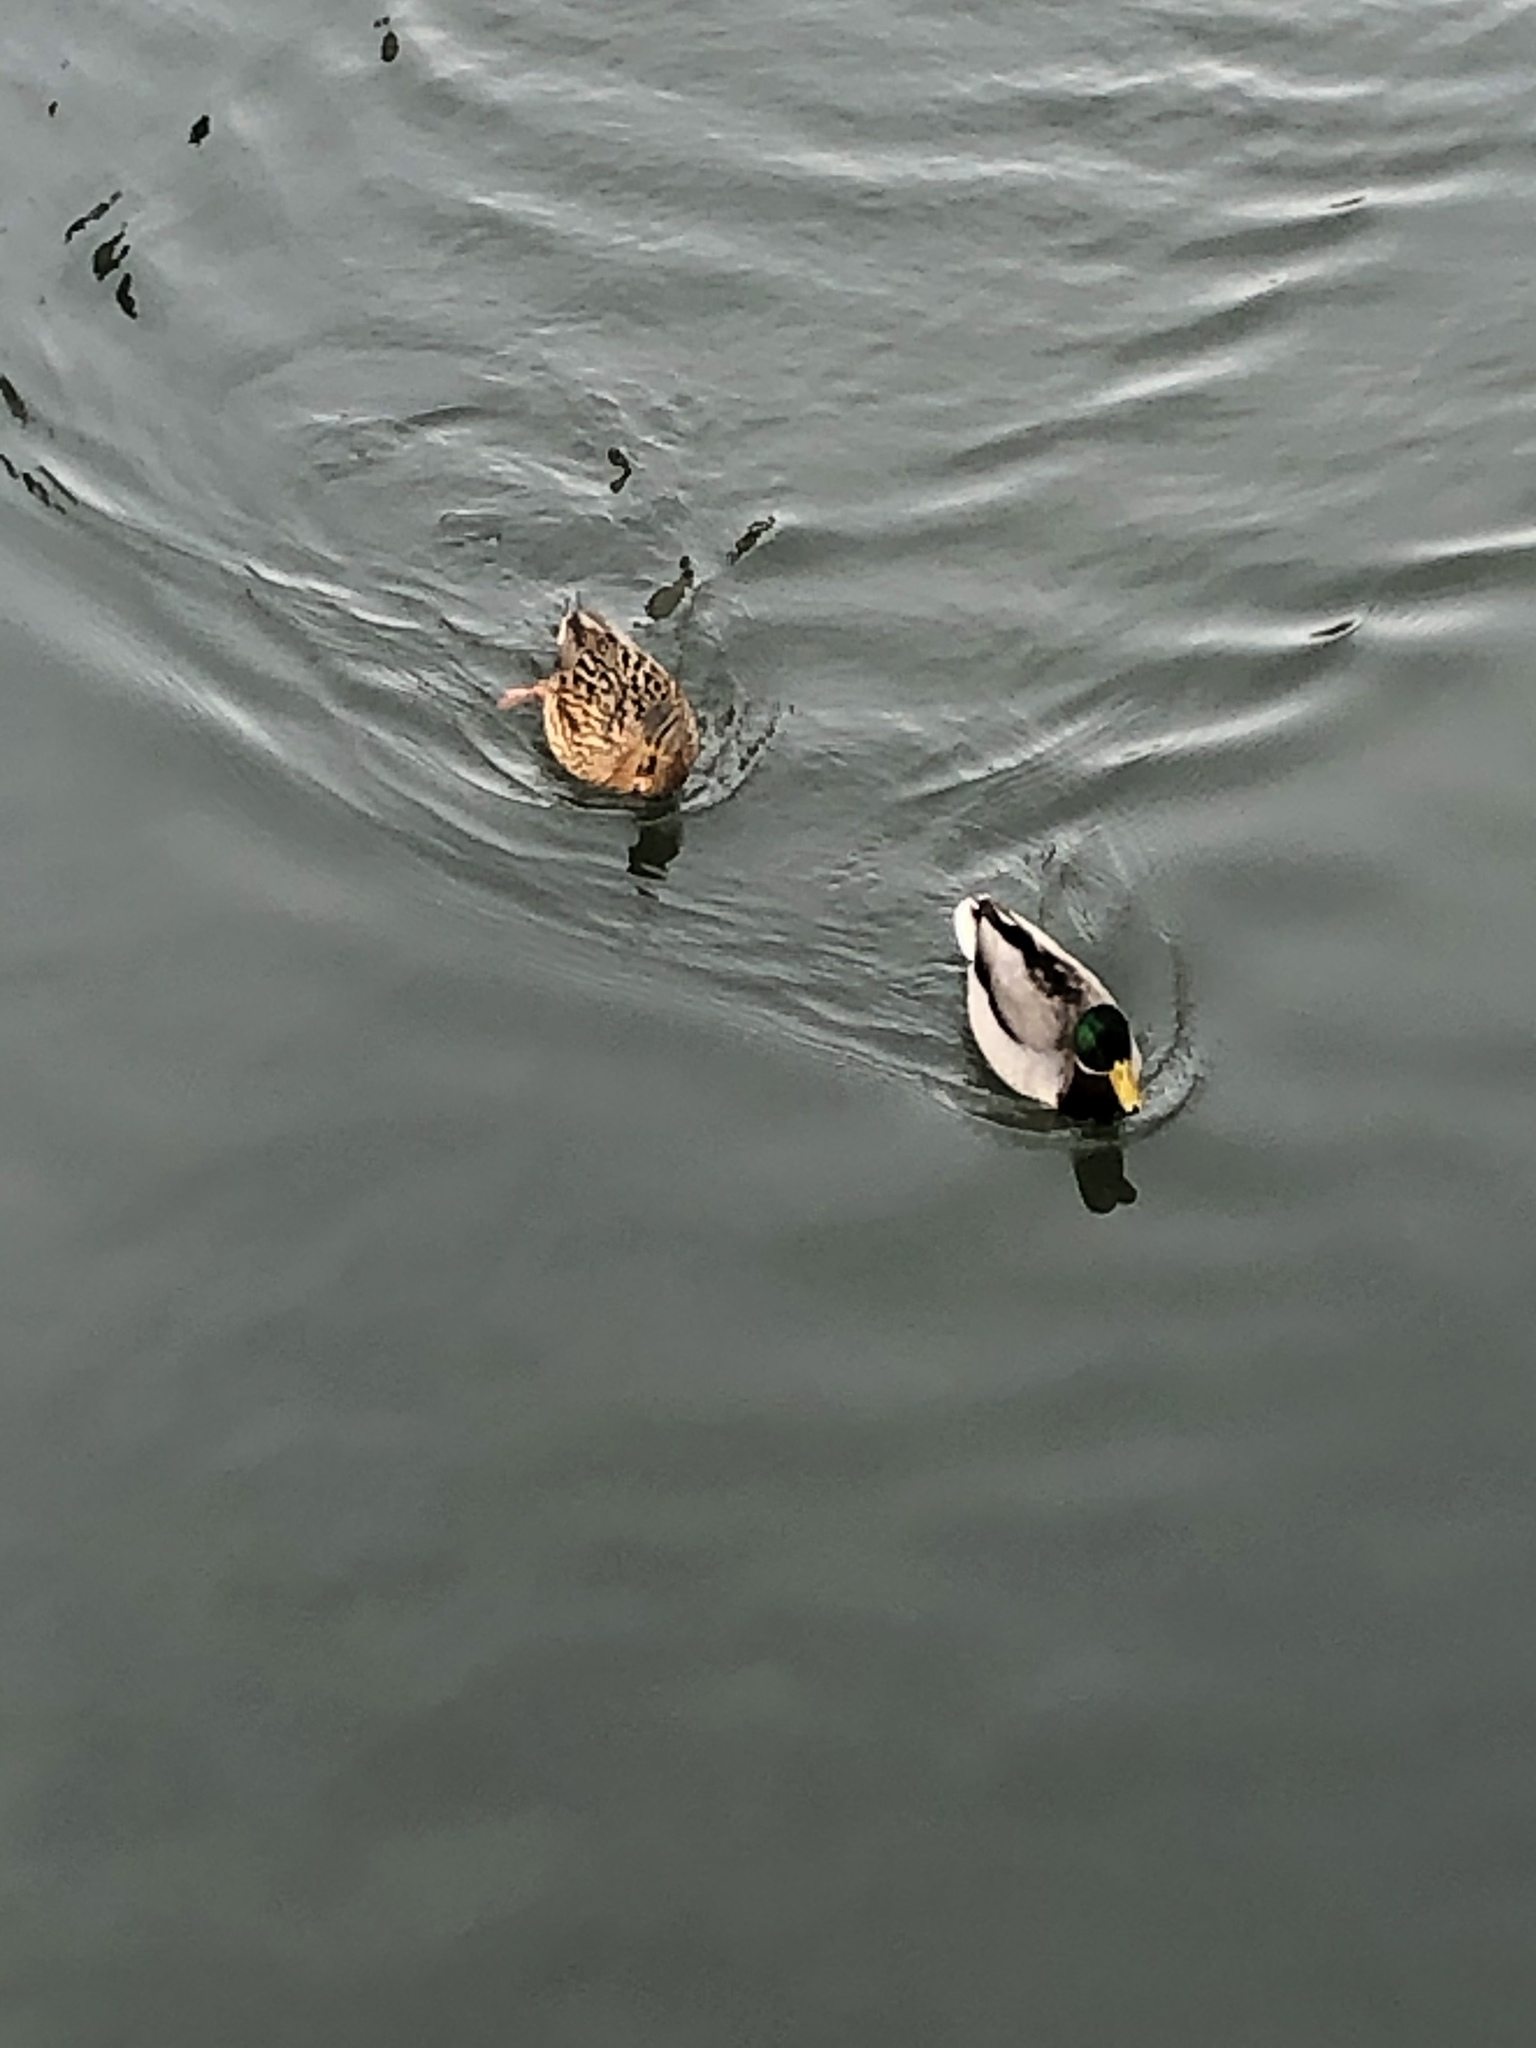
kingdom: Animalia
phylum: Chordata
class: Aves
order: Anseriformes
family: Anatidae
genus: Anas
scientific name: Anas platyrhynchos
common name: Mallard
